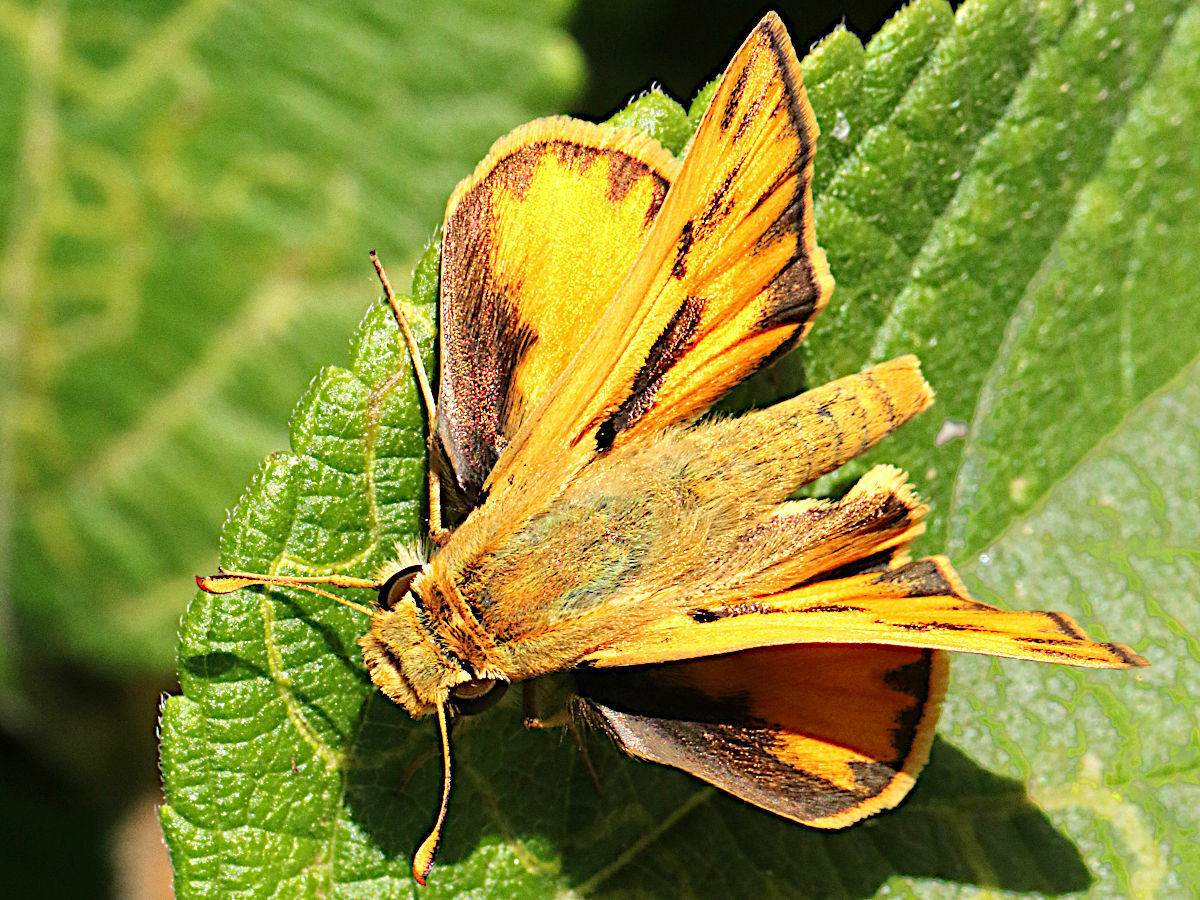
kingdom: Animalia
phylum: Arthropoda
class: Insecta
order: Lepidoptera
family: Hesperiidae
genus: Hylephila
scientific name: Hylephila phyleus
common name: Fiery skipper
